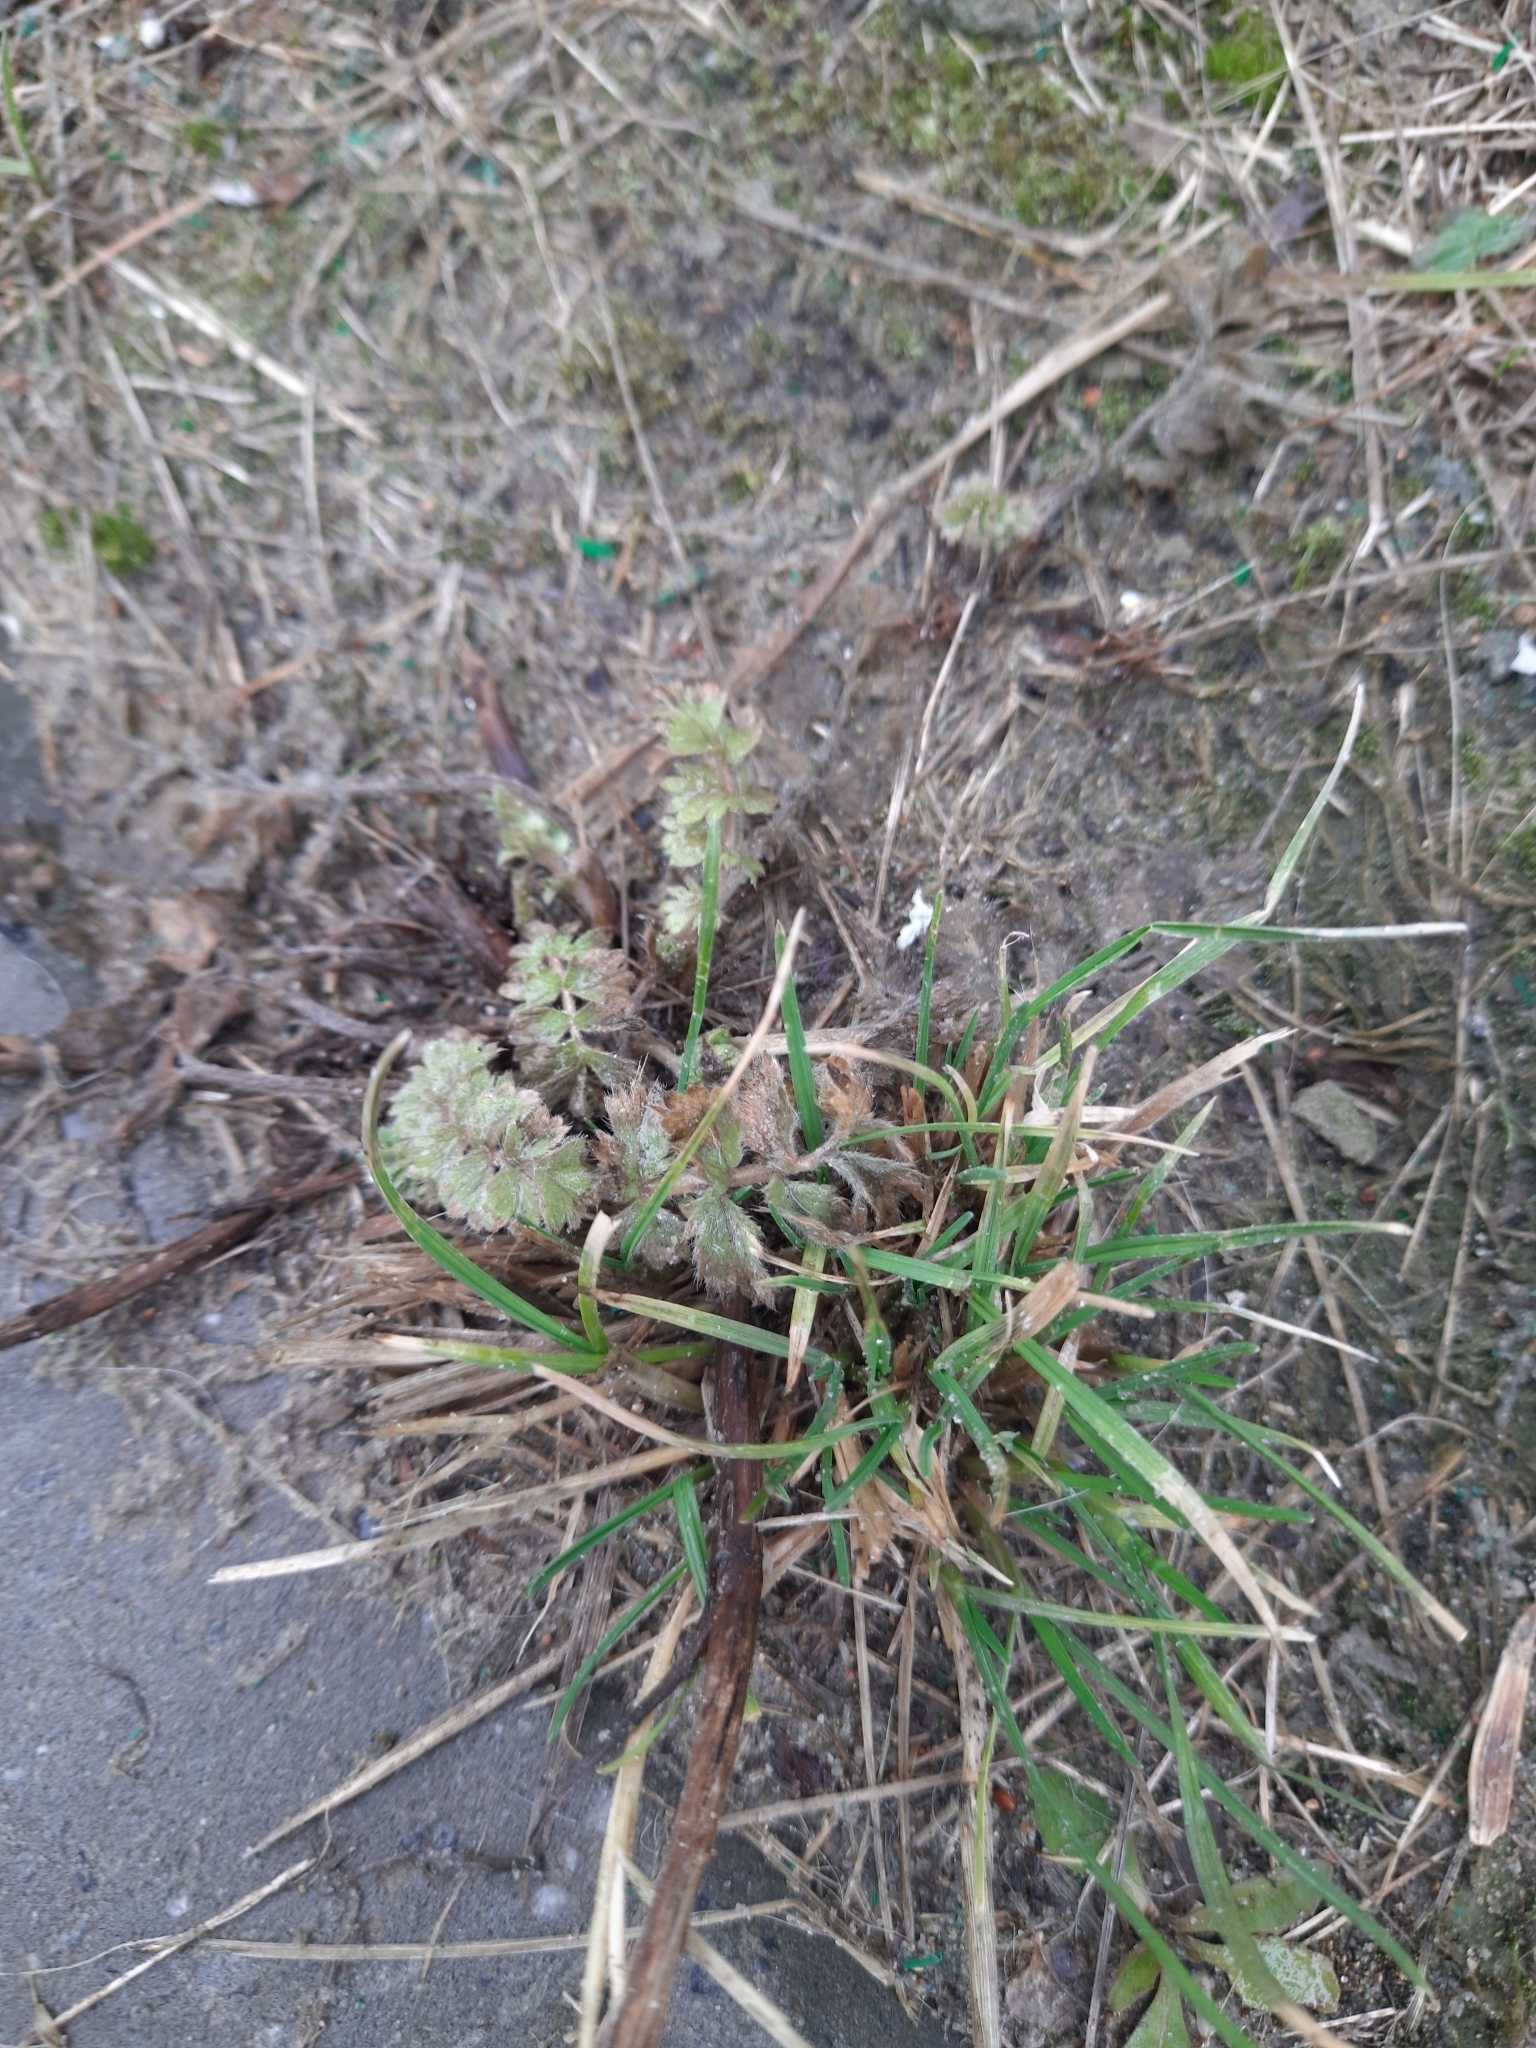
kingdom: Plantae
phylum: Tracheophyta
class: Magnoliopsida
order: Rosales
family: Rosaceae
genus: Potentilla
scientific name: Potentilla supina
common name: Prostrate cinquefoil
